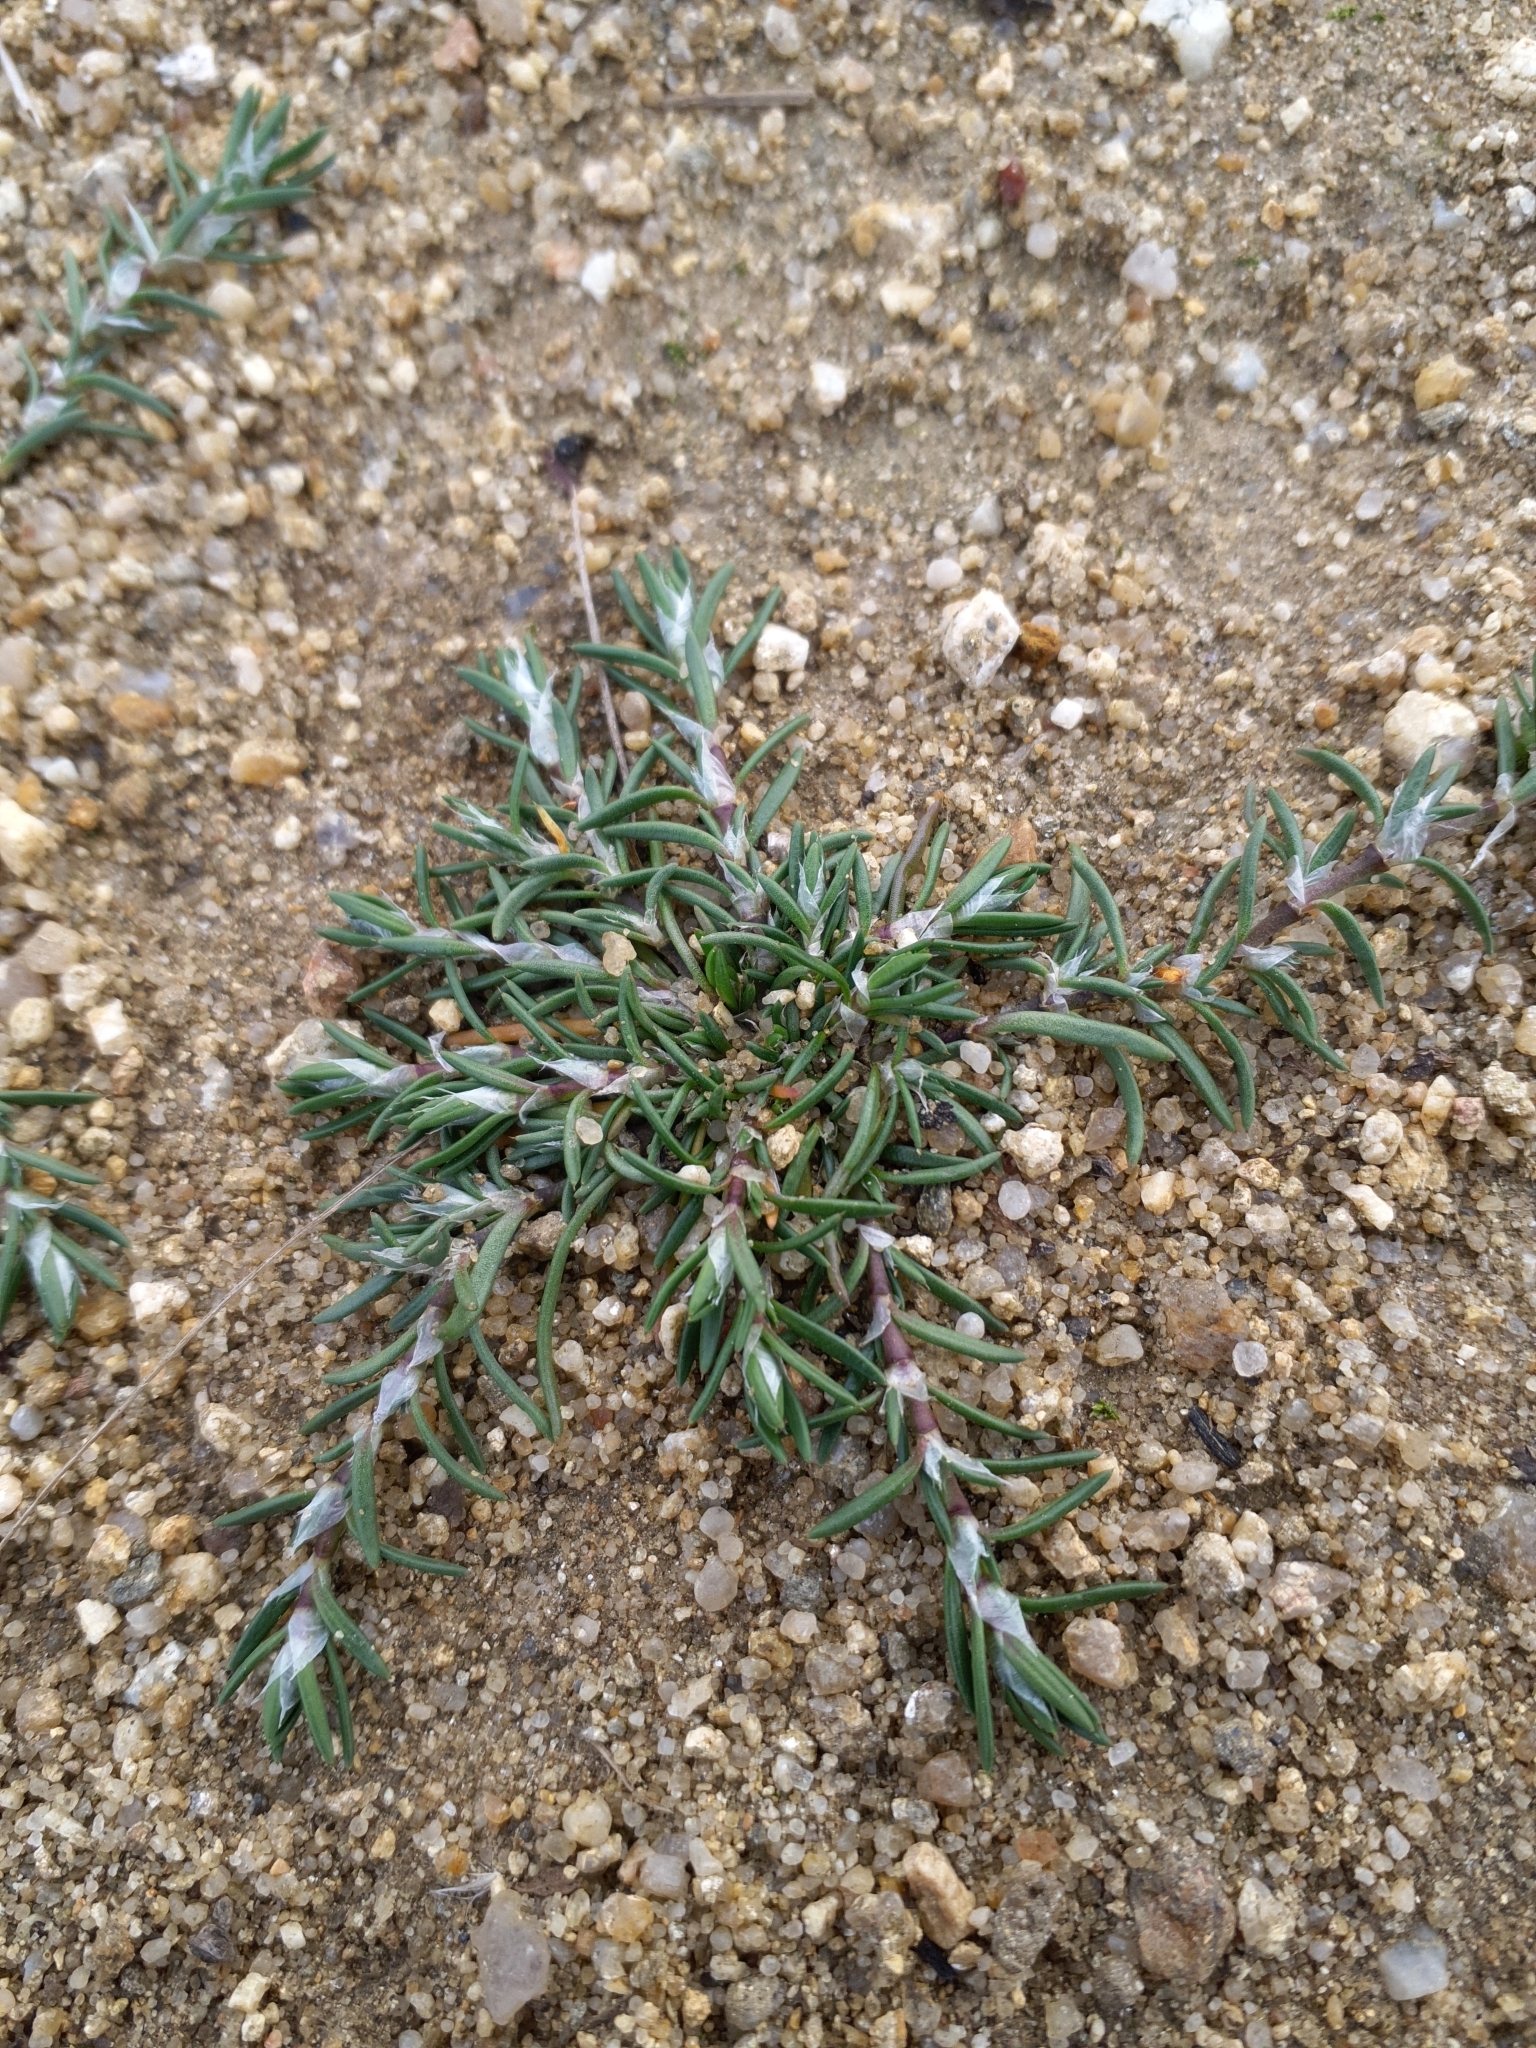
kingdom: Plantae
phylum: Tracheophyta
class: Magnoliopsida
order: Caryophyllales
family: Caryophyllaceae
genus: Spergularia
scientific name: Spergularia rubra
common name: Red sand-spurrey
